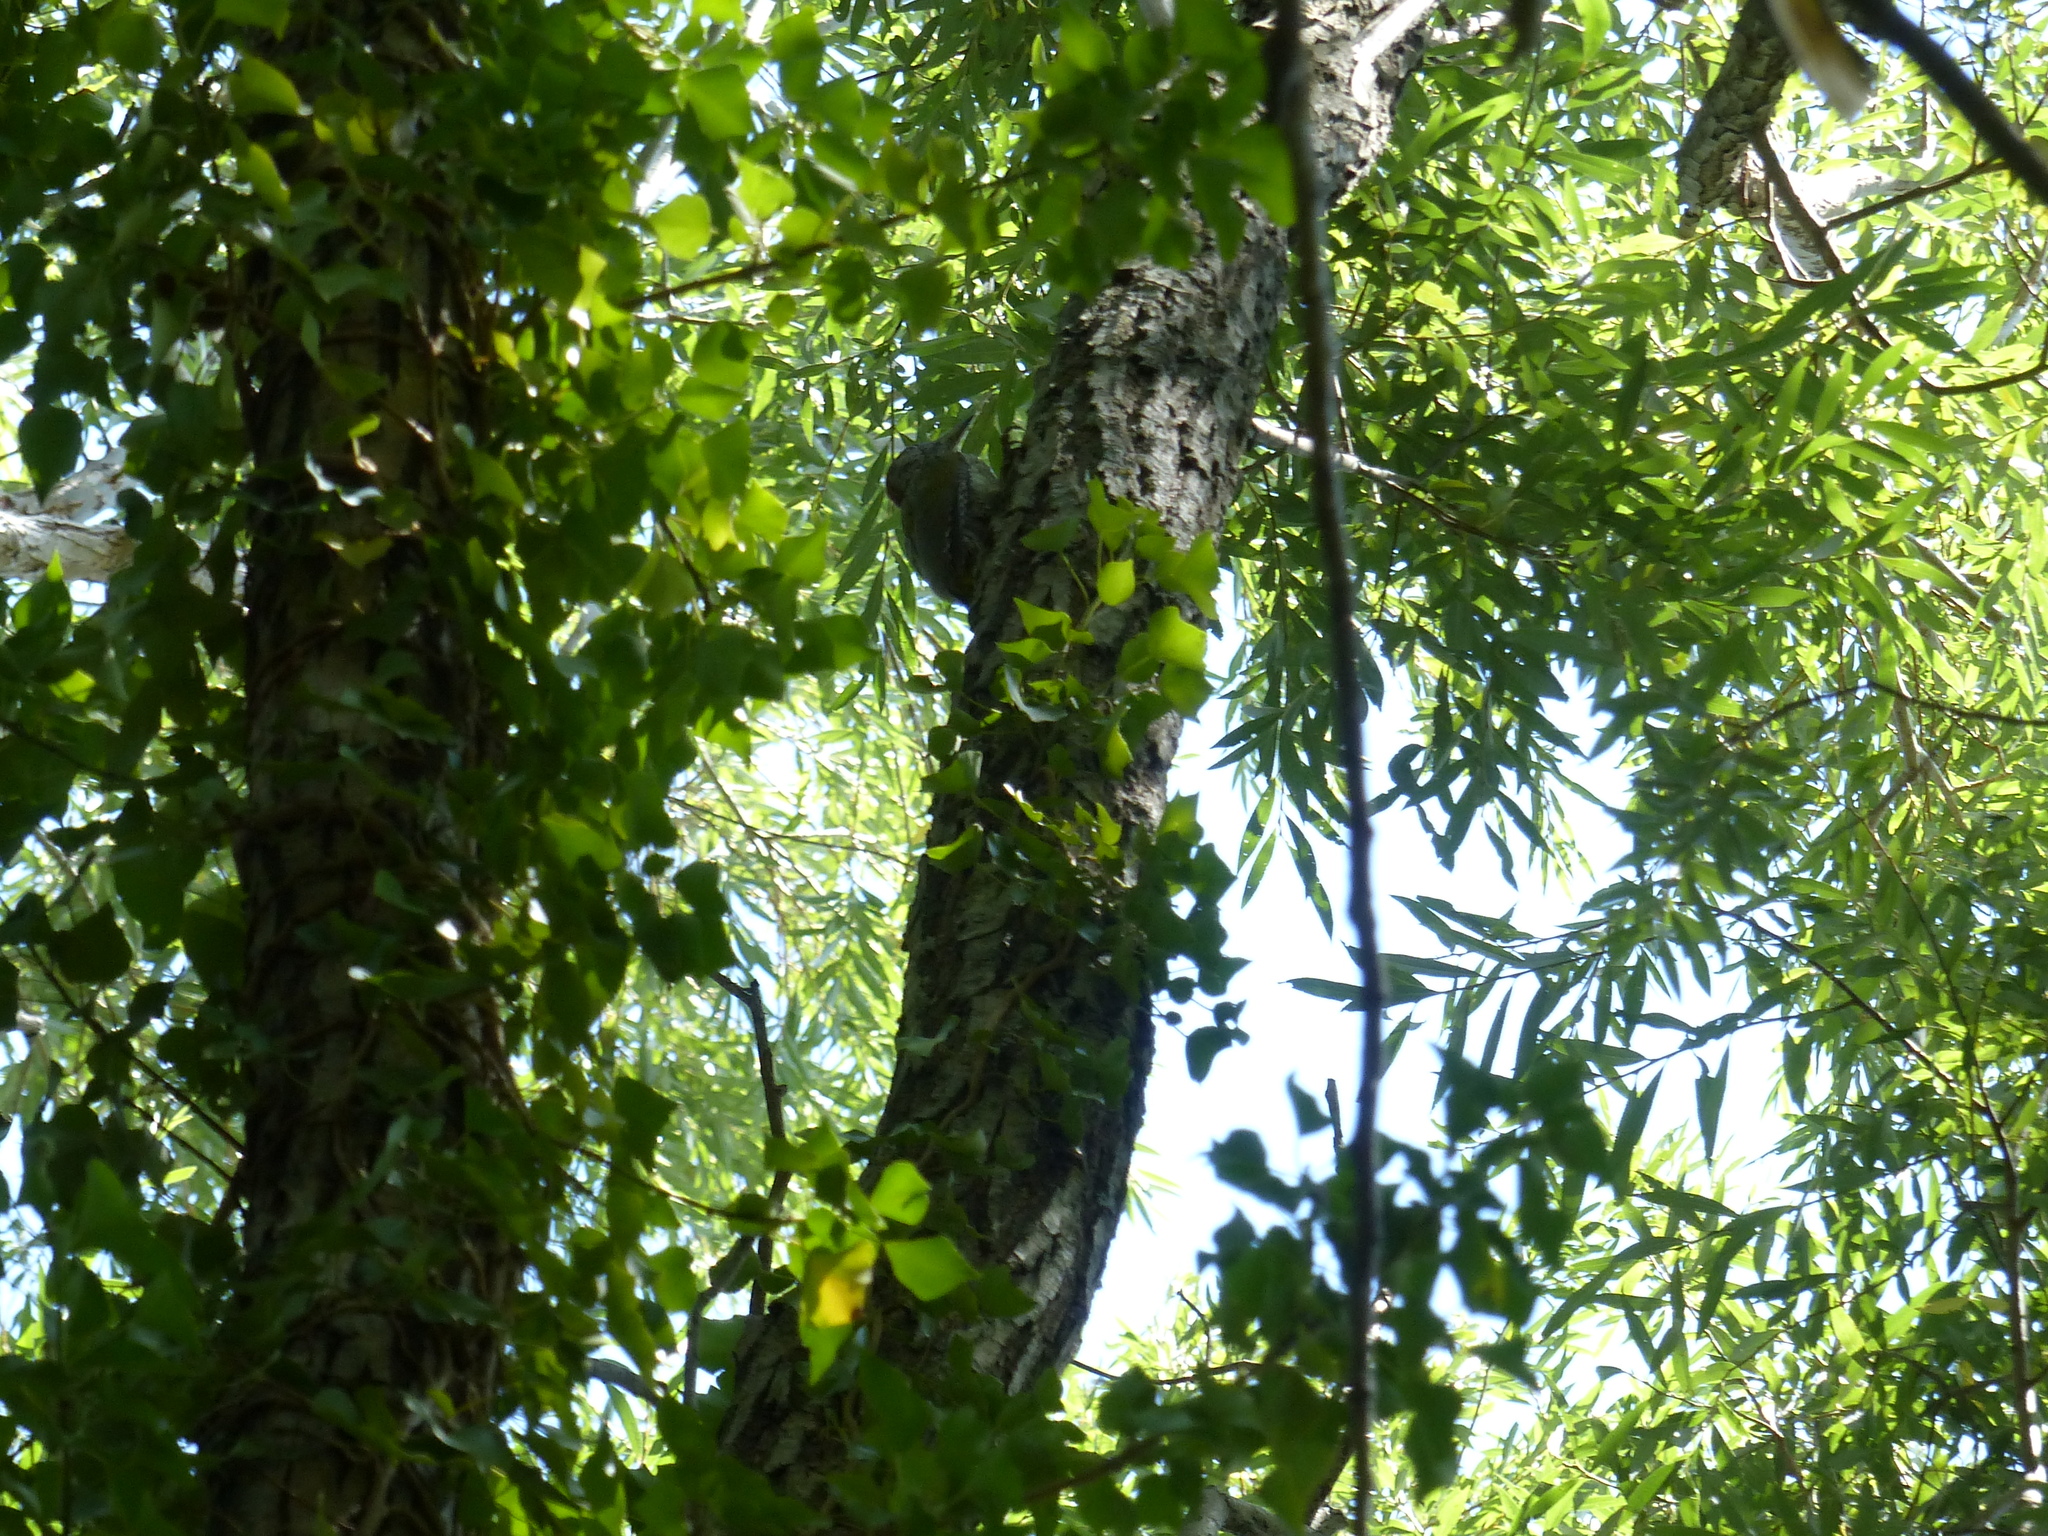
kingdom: Animalia
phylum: Chordata
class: Aves
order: Piciformes
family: Picidae
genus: Picus
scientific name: Picus viridis
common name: European green woodpecker
